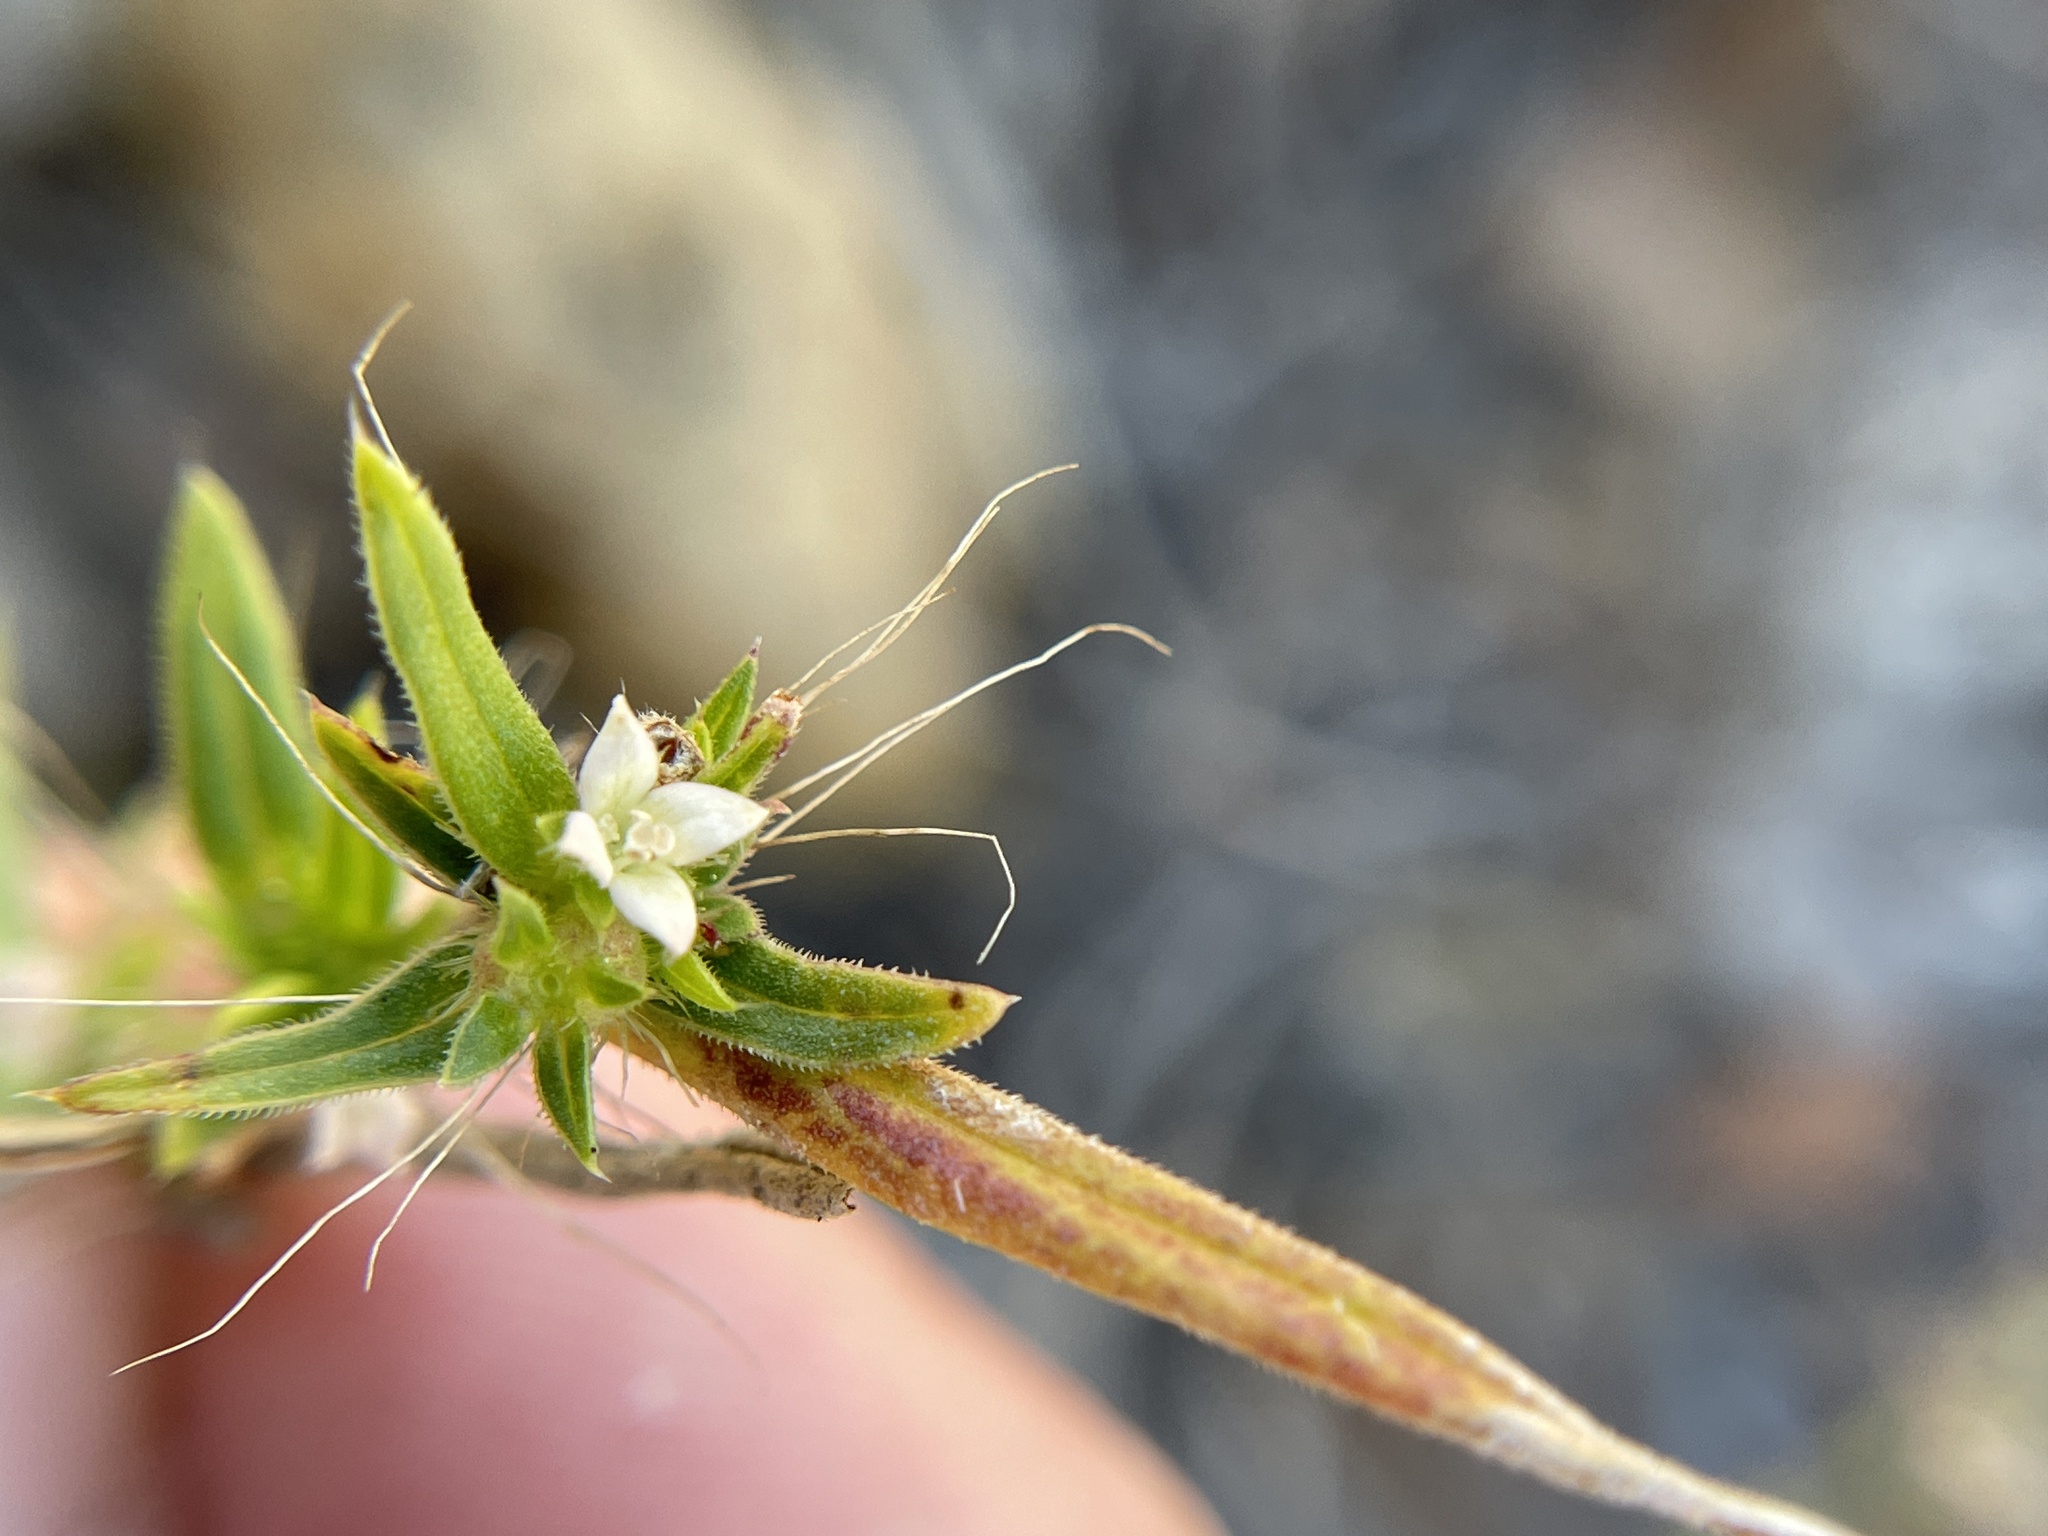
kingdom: Plantae
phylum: Tracheophyta
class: Magnoliopsida
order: Gentianales
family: Rubiaceae
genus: Hexasepalum
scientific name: Hexasepalum teres
